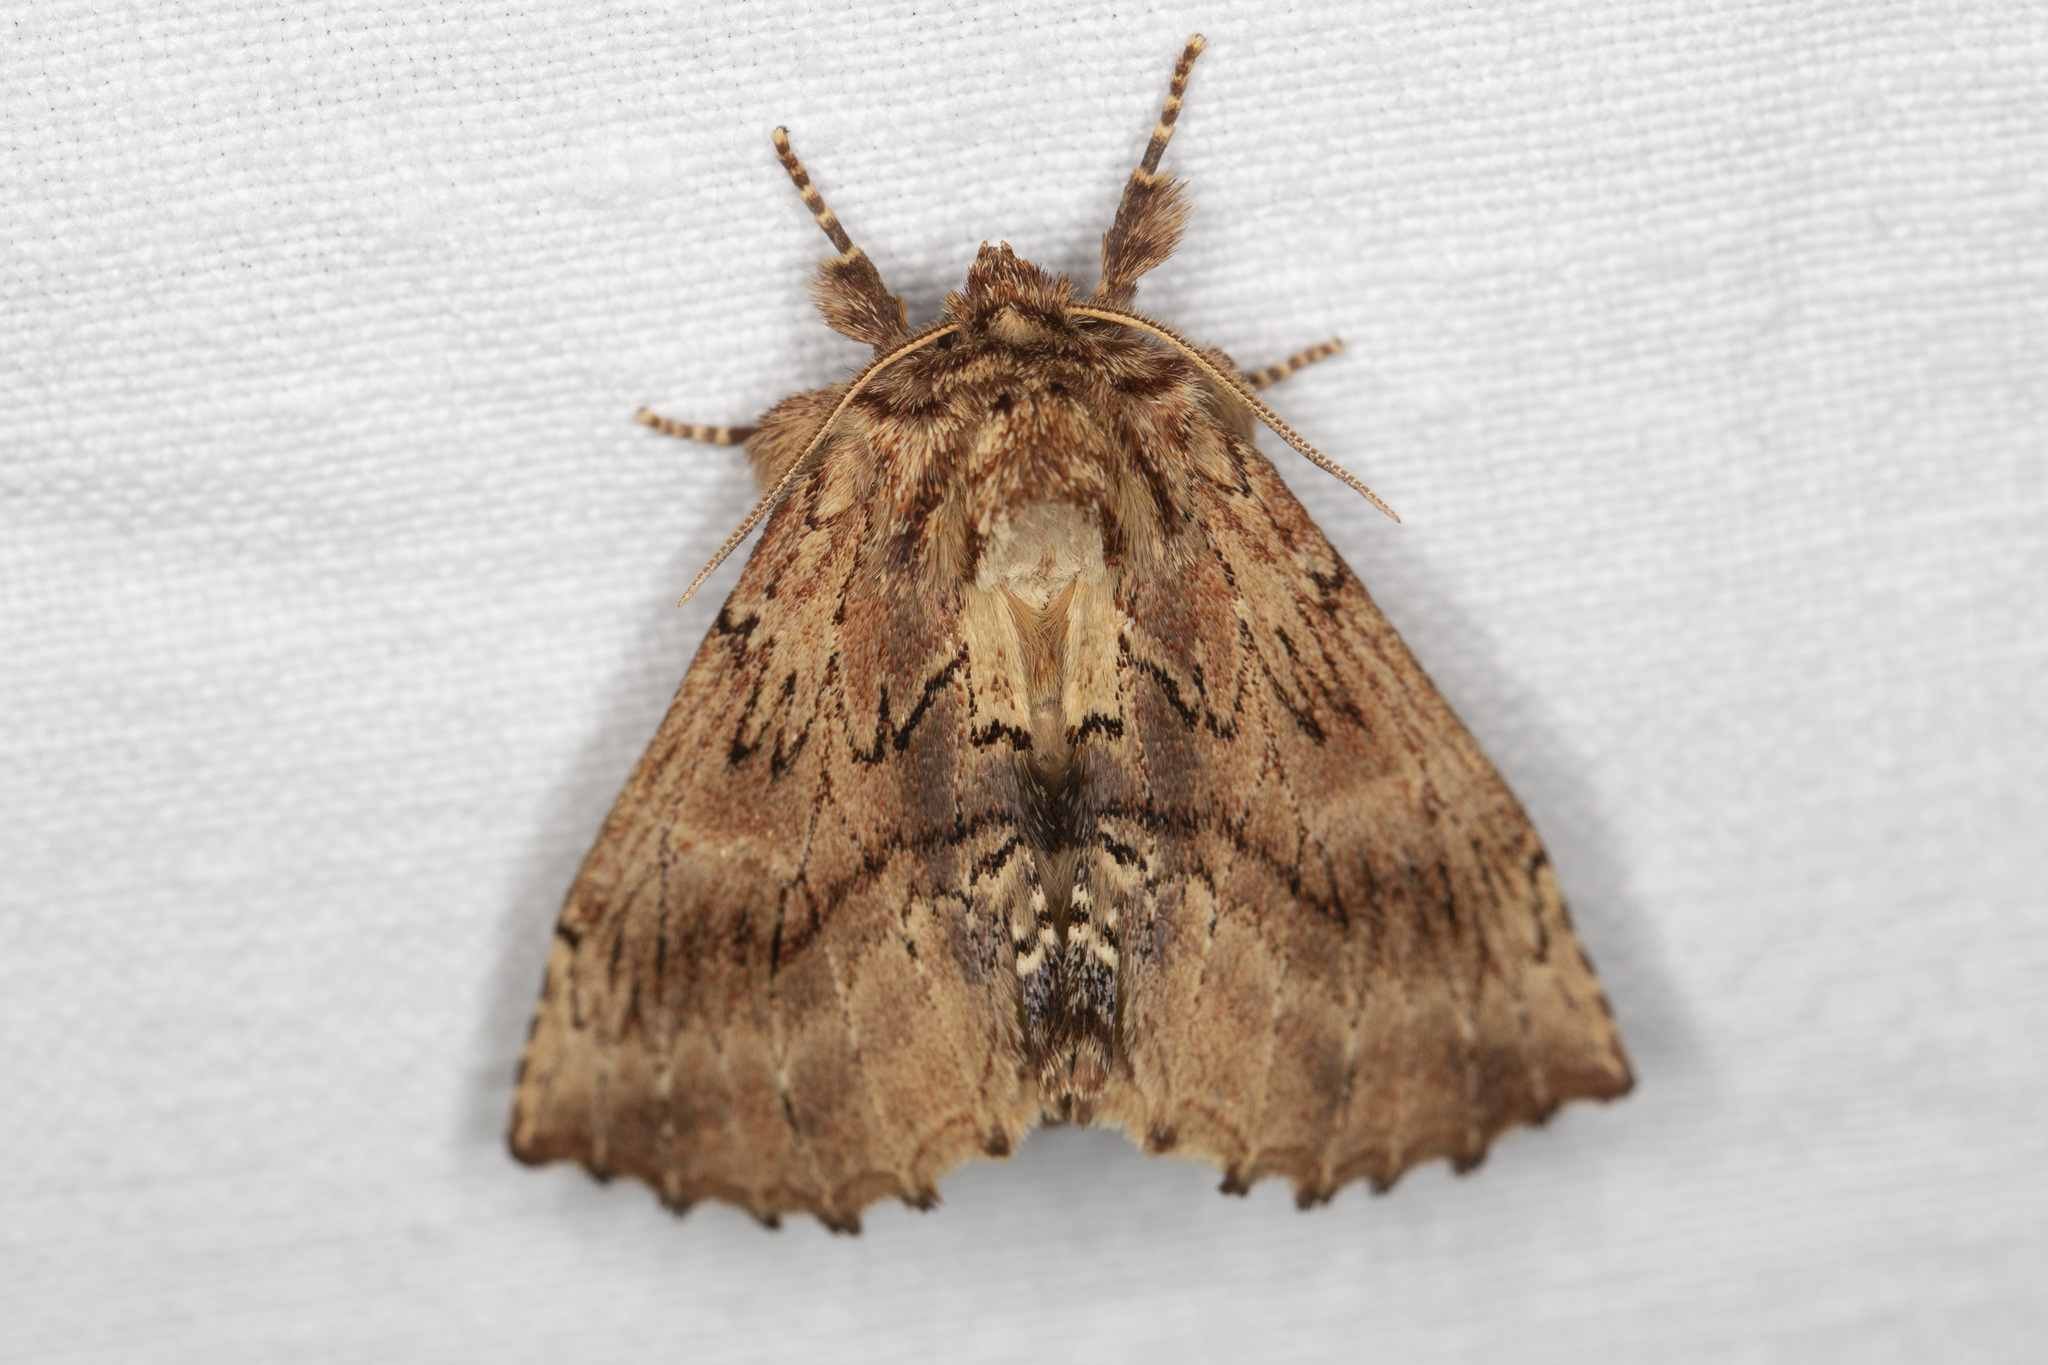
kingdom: Animalia
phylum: Arthropoda
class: Insecta
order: Lepidoptera
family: Notodontidae
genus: Ptilodon
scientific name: Ptilodon capucina
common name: Coxcomb prominent
